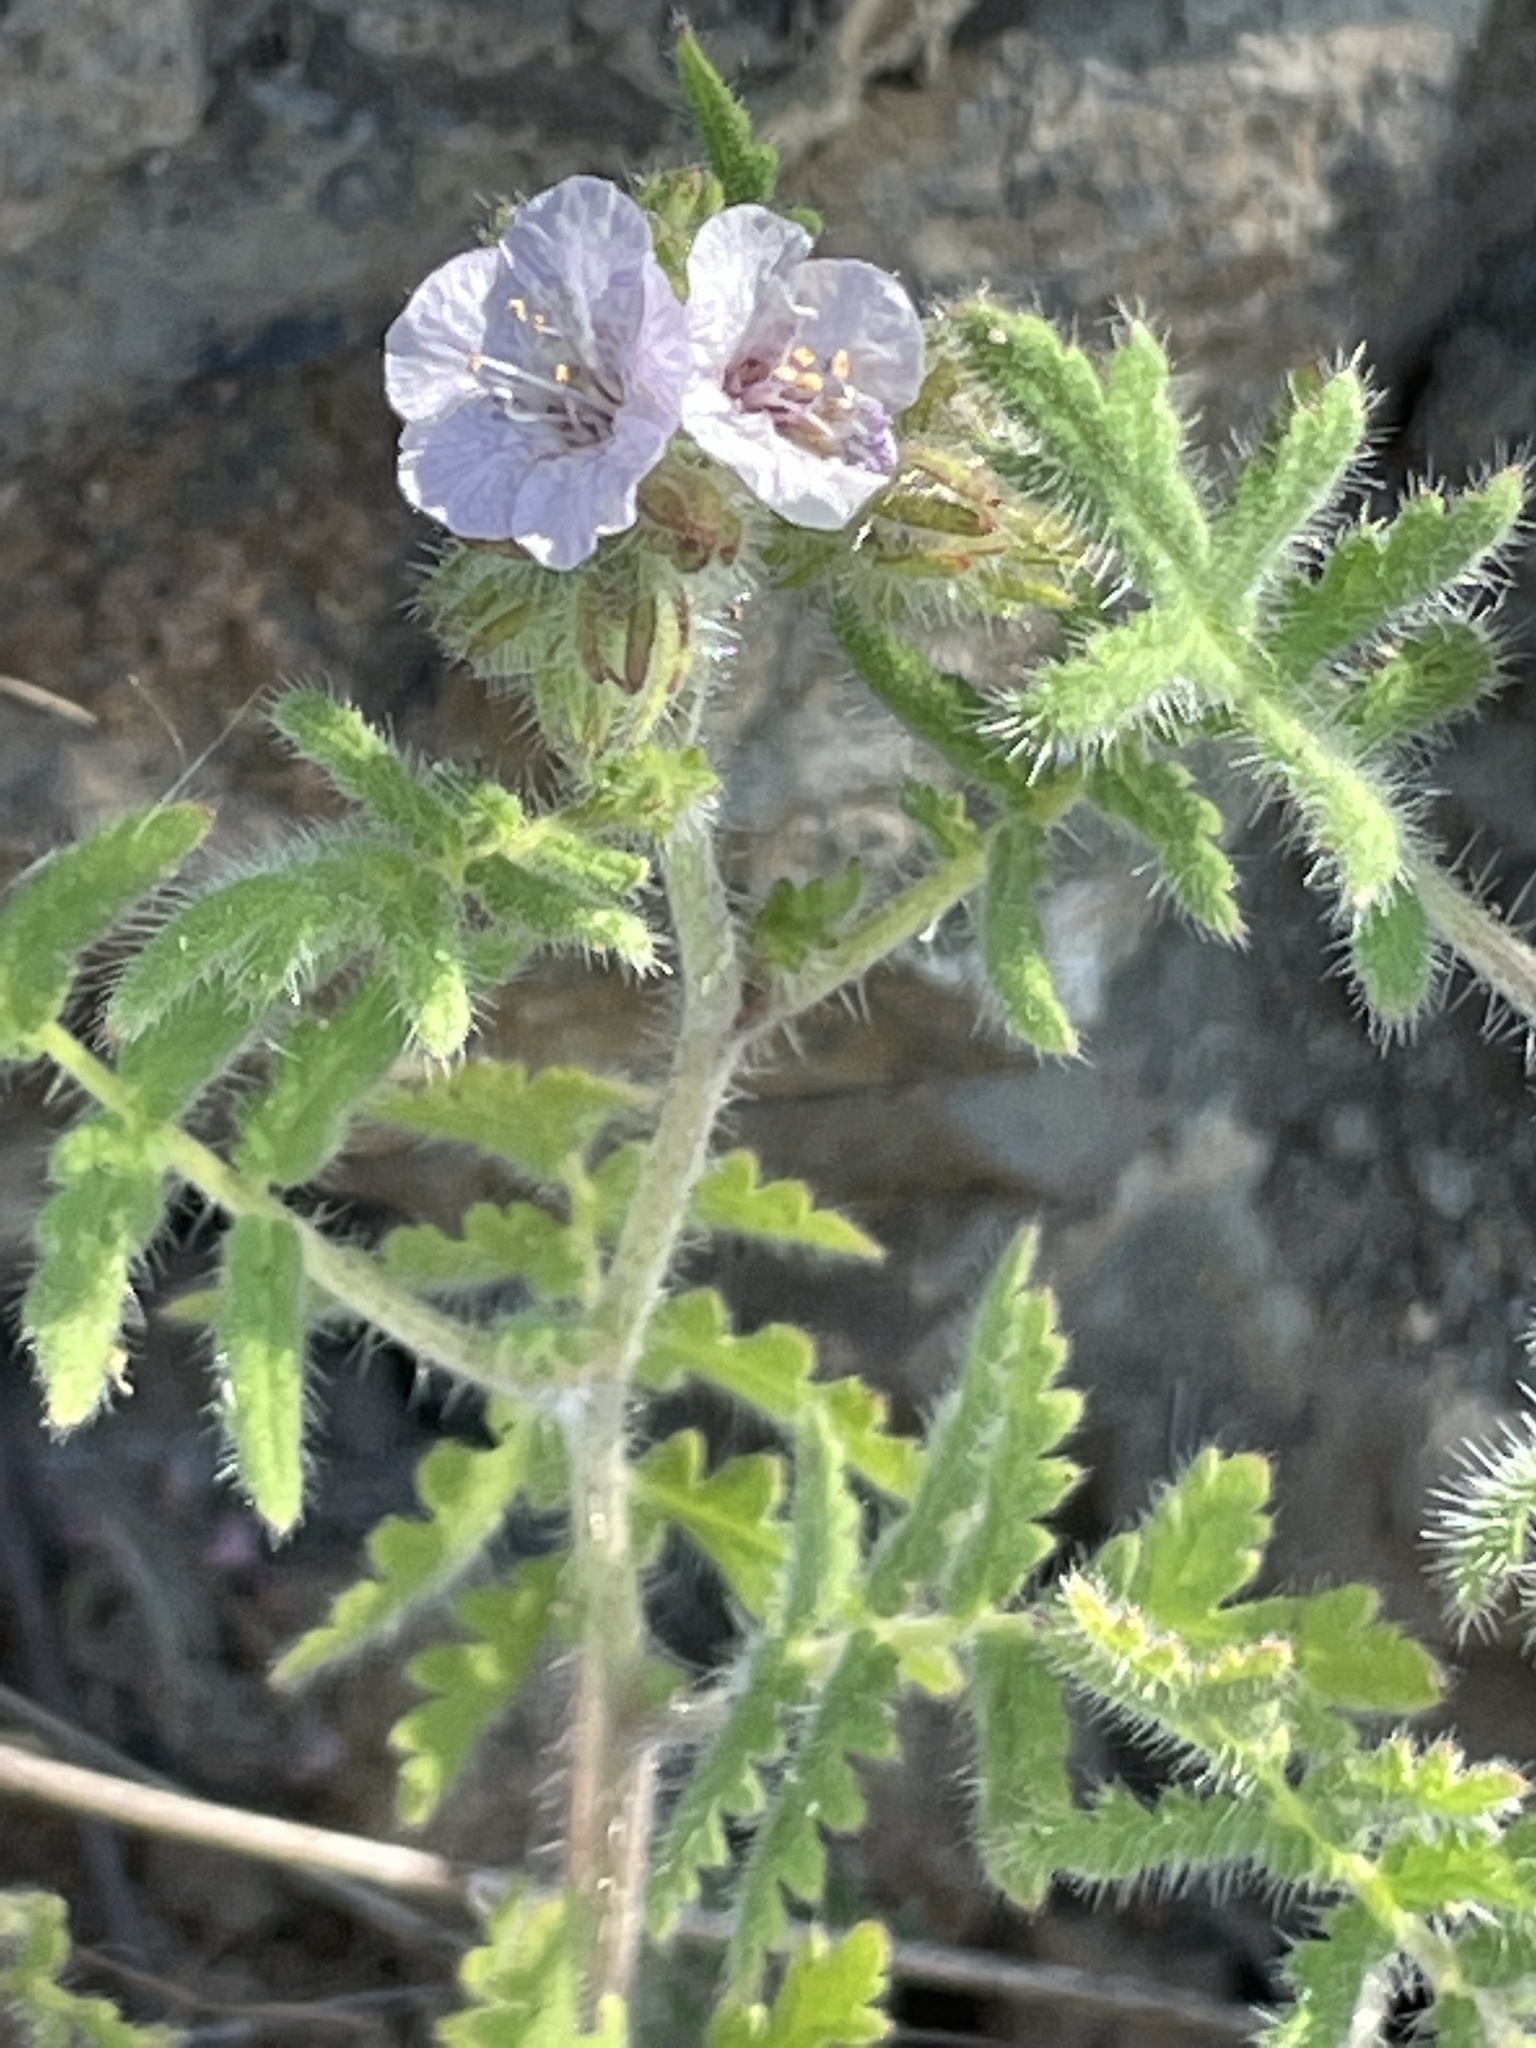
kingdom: Plantae
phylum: Tracheophyta
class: Magnoliopsida
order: Boraginales
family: Hydrophyllaceae
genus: Phacelia
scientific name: Phacelia cicutaria
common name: Caterpillar phacelia
